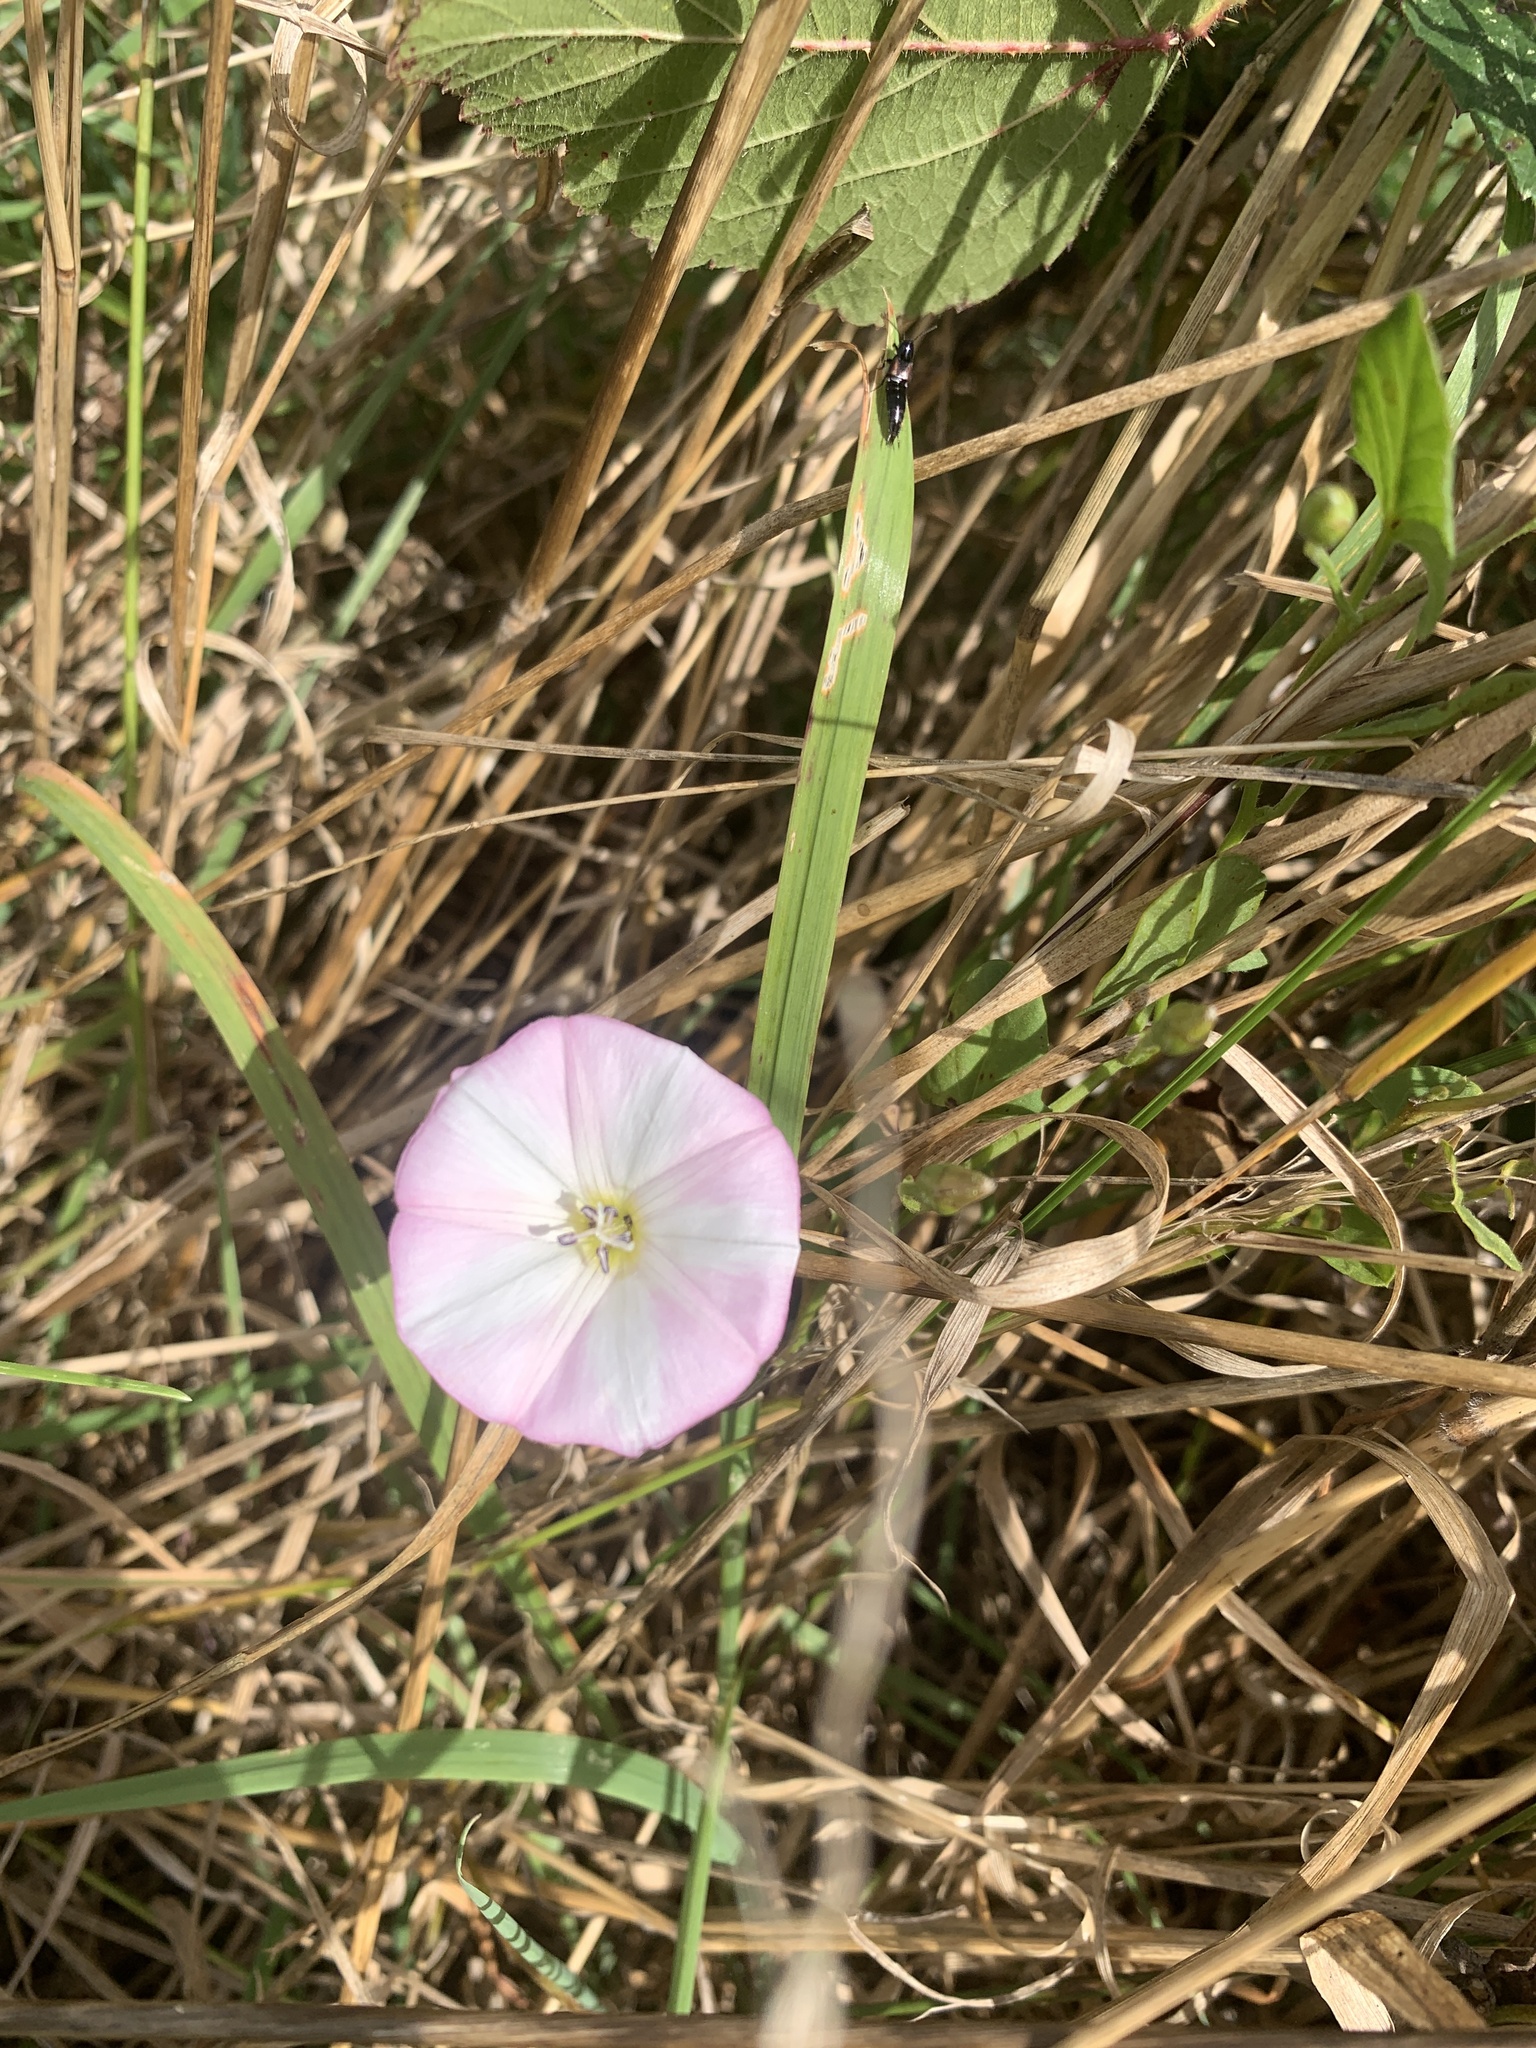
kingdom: Plantae
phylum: Tracheophyta
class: Magnoliopsida
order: Solanales
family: Convolvulaceae
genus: Convolvulus
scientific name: Convolvulus arvensis
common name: Field bindweed
